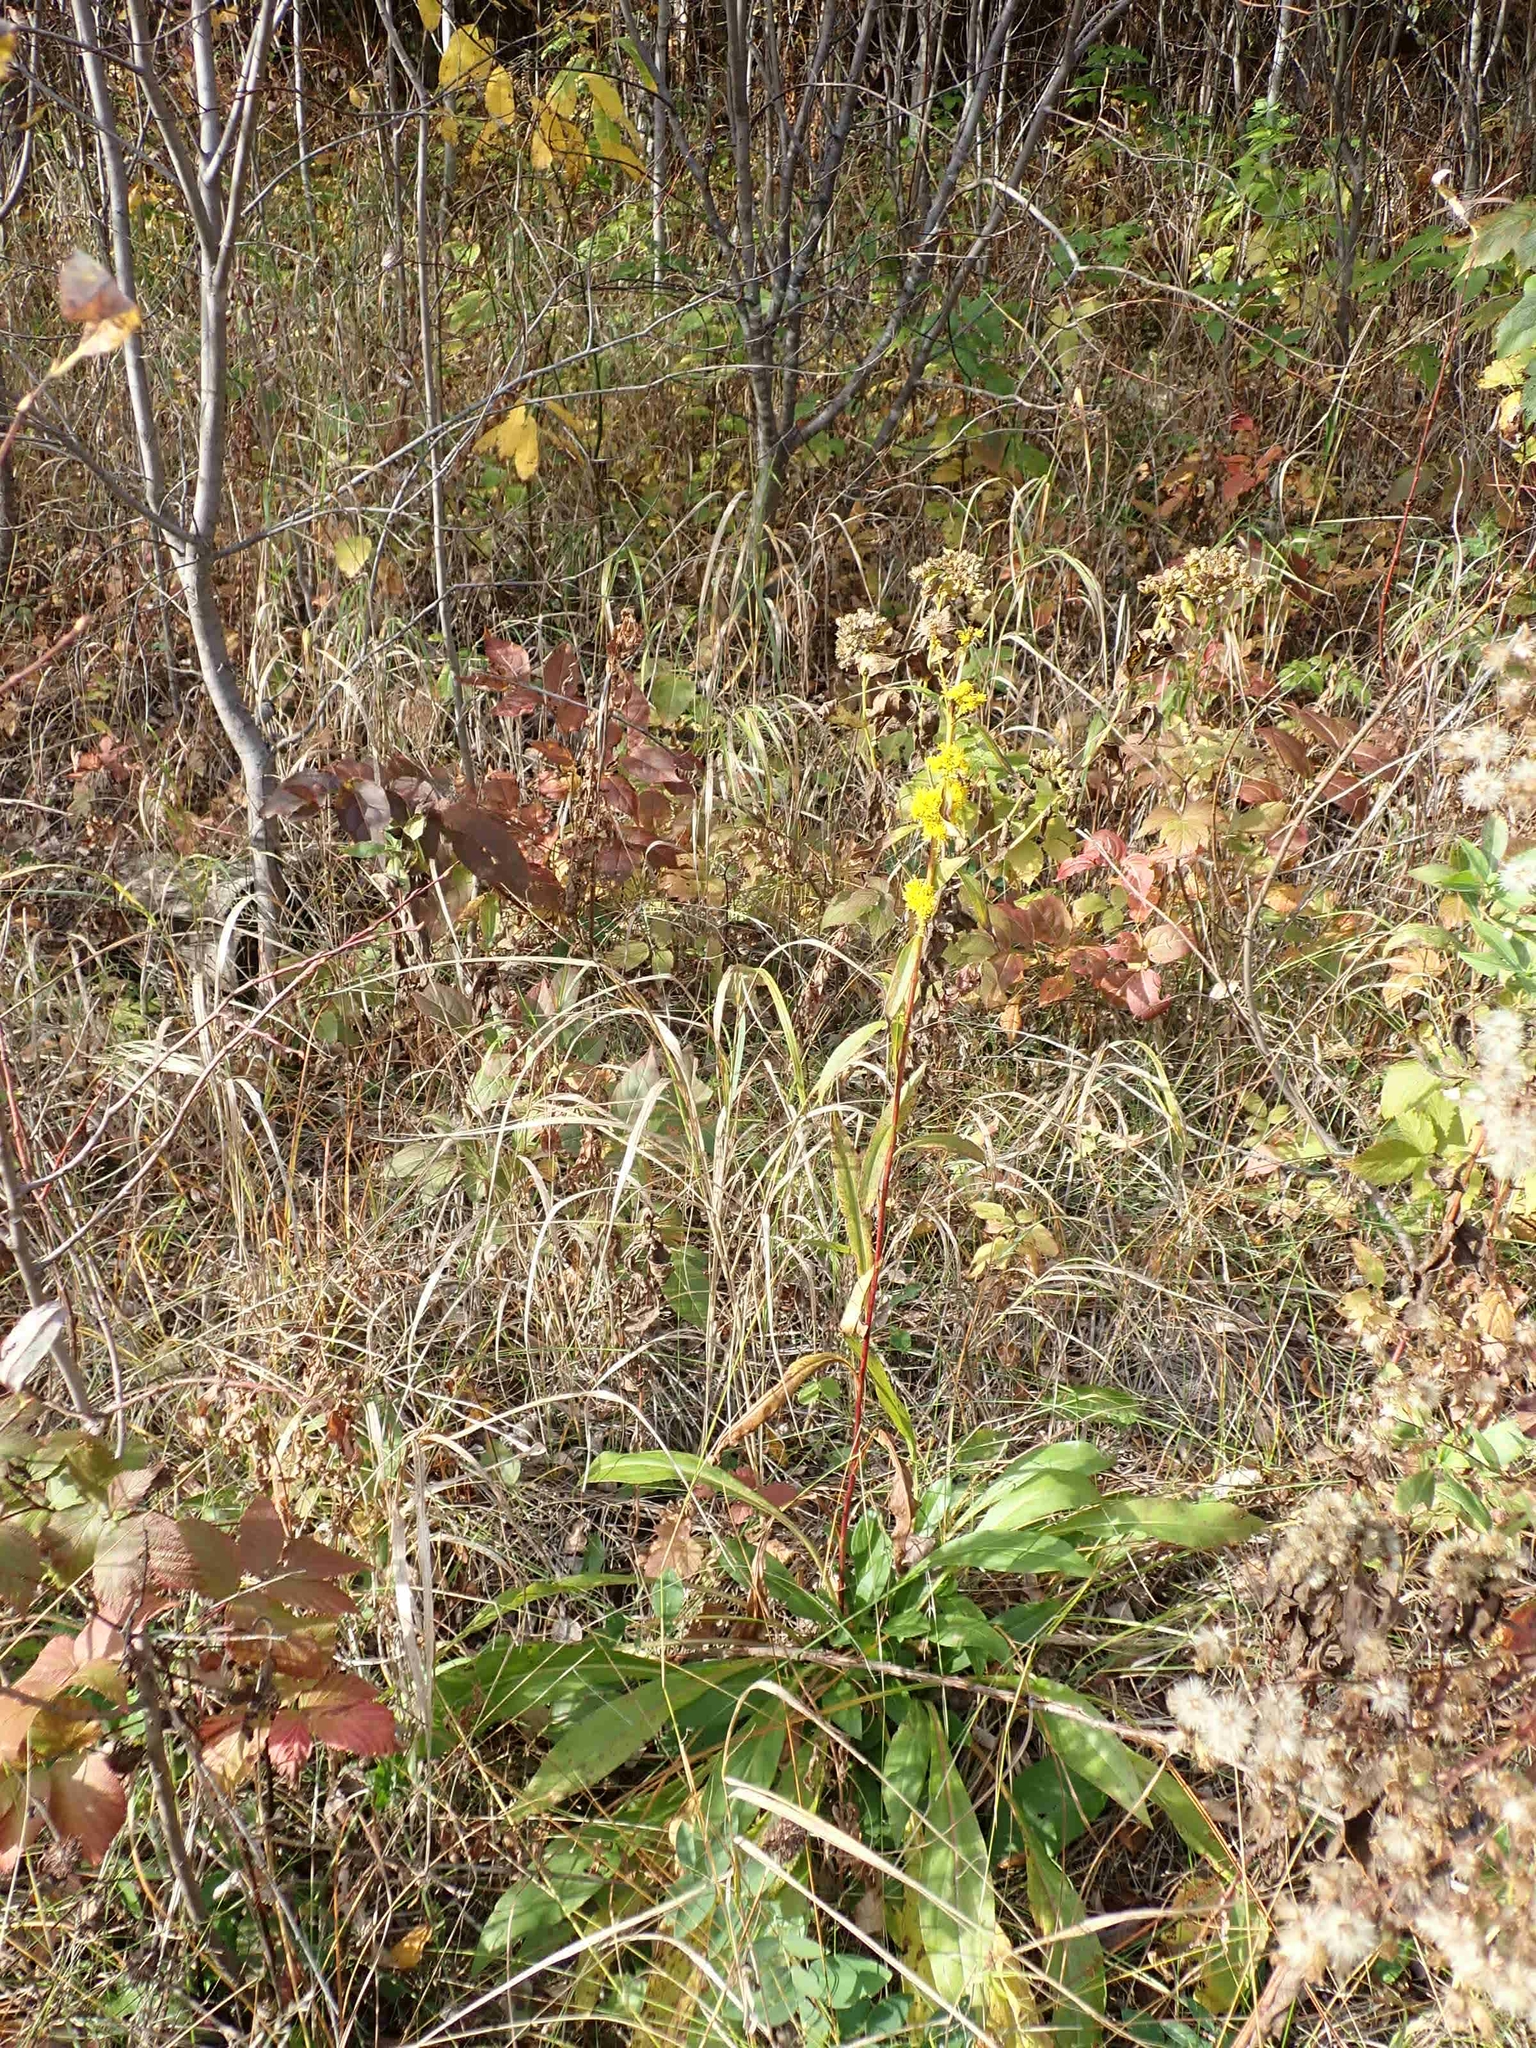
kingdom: Plantae
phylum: Tracheophyta
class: Magnoliopsida
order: Asterales
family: Asteraceae
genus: Solidago
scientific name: Solidago hispida
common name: Hairy goldenrod
